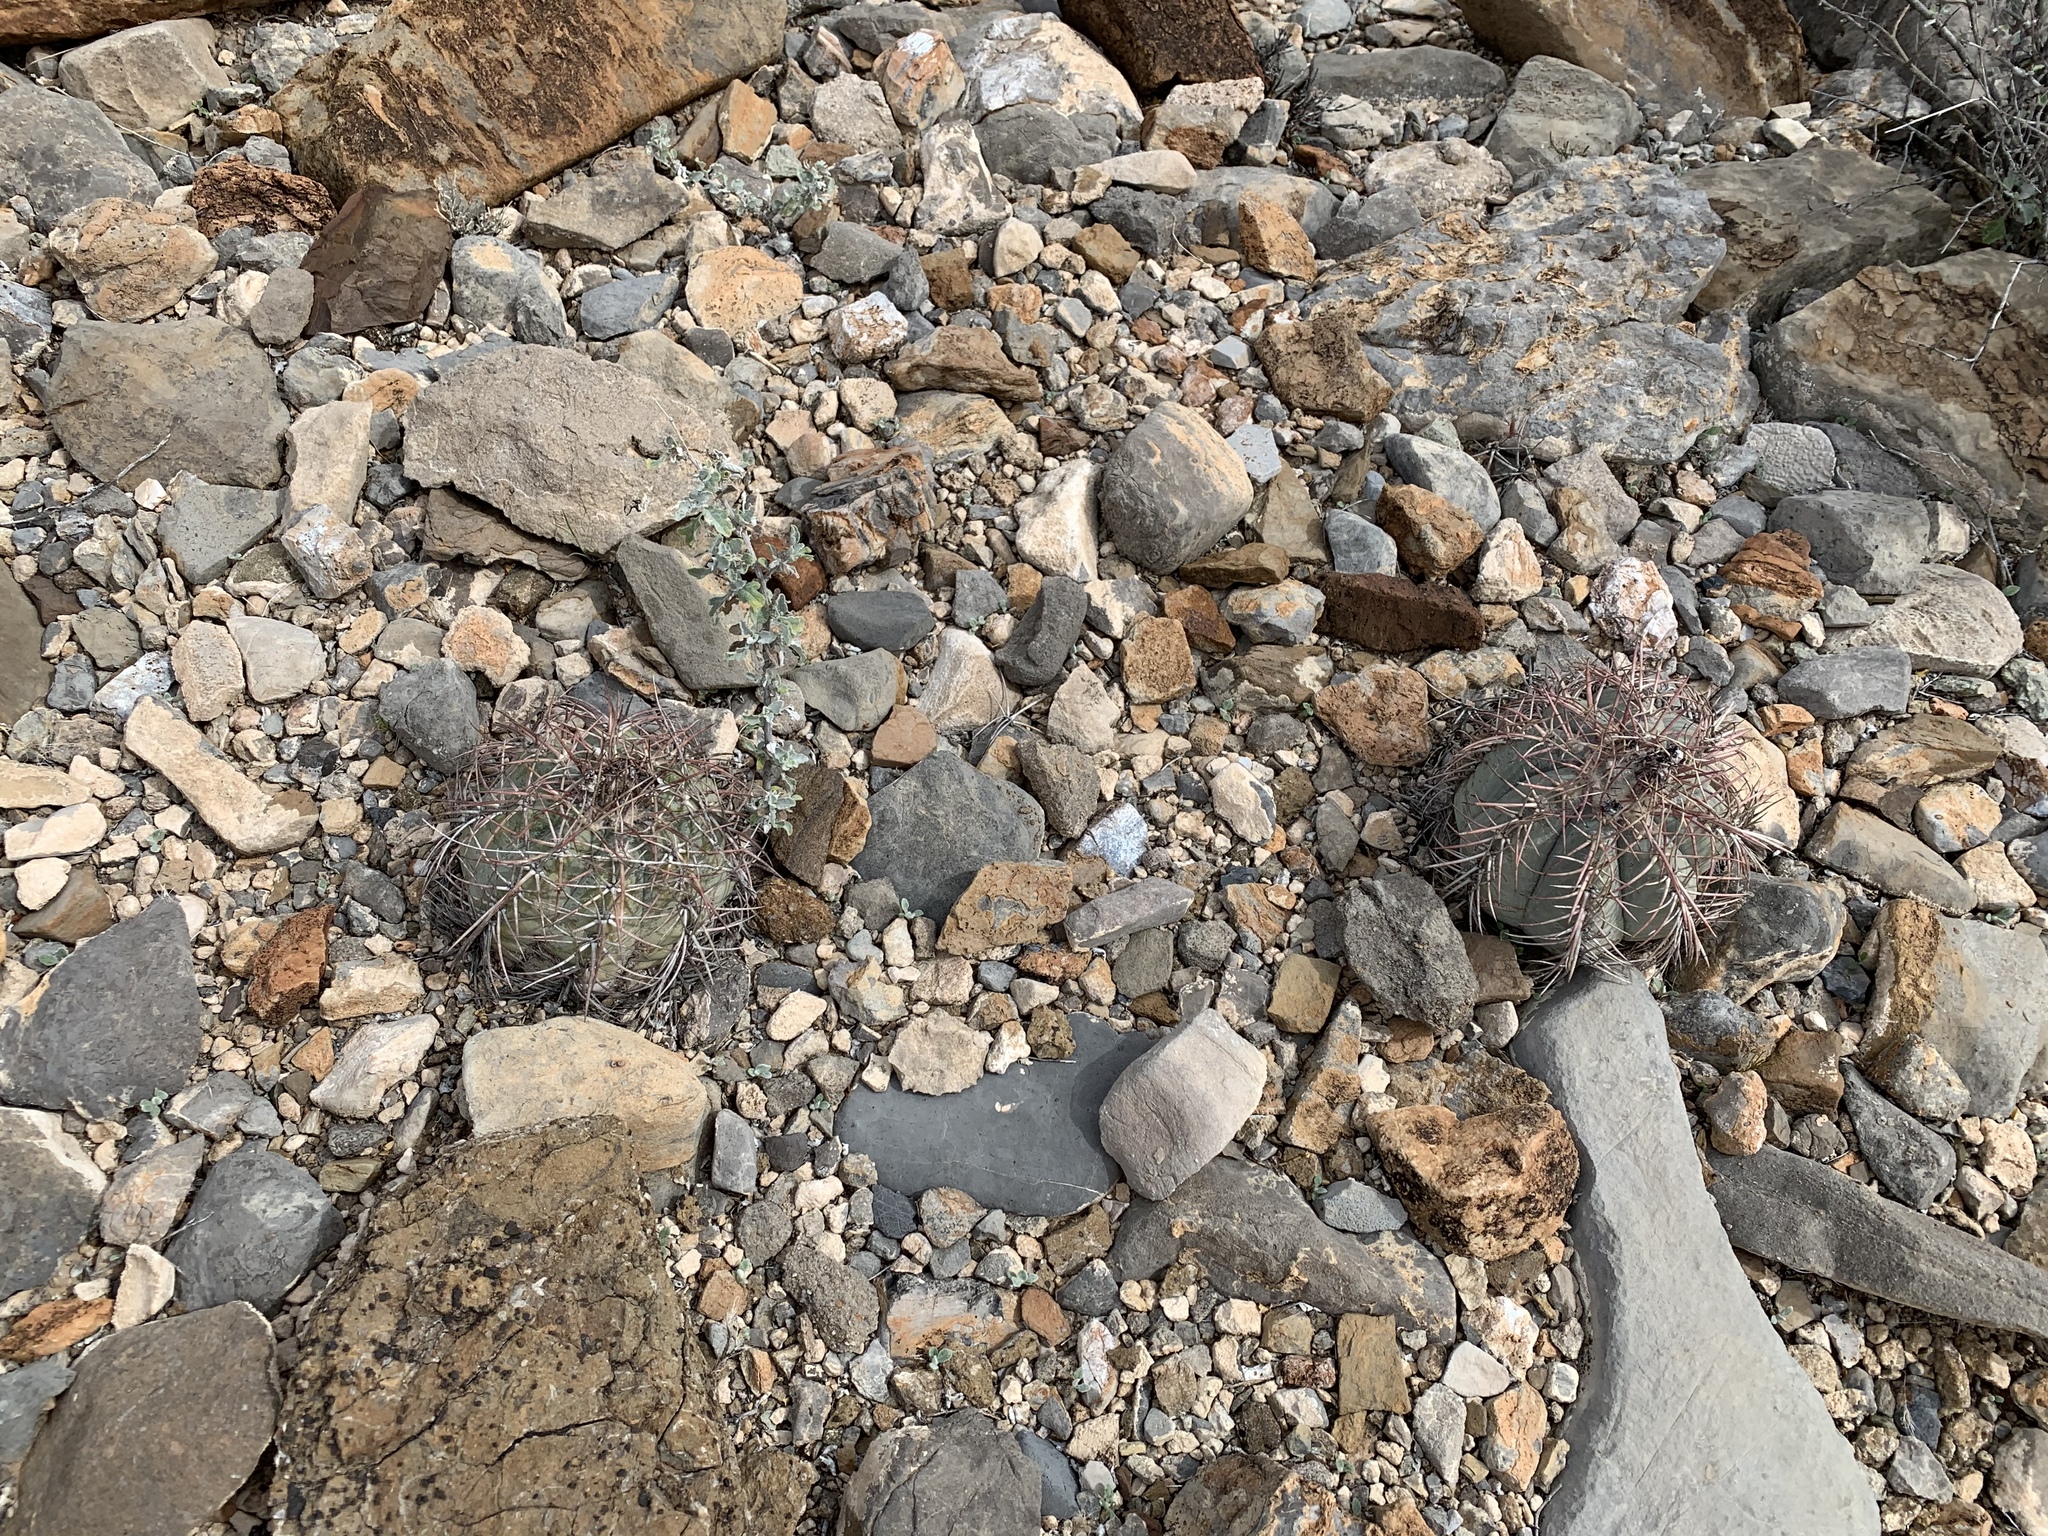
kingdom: Plantae
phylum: Tracheophyta
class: Magnoliopsida
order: Caryophyllales
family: Cactaceae
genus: Echinocactus
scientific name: Echinocactus horizonthalonius
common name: Devilshead
